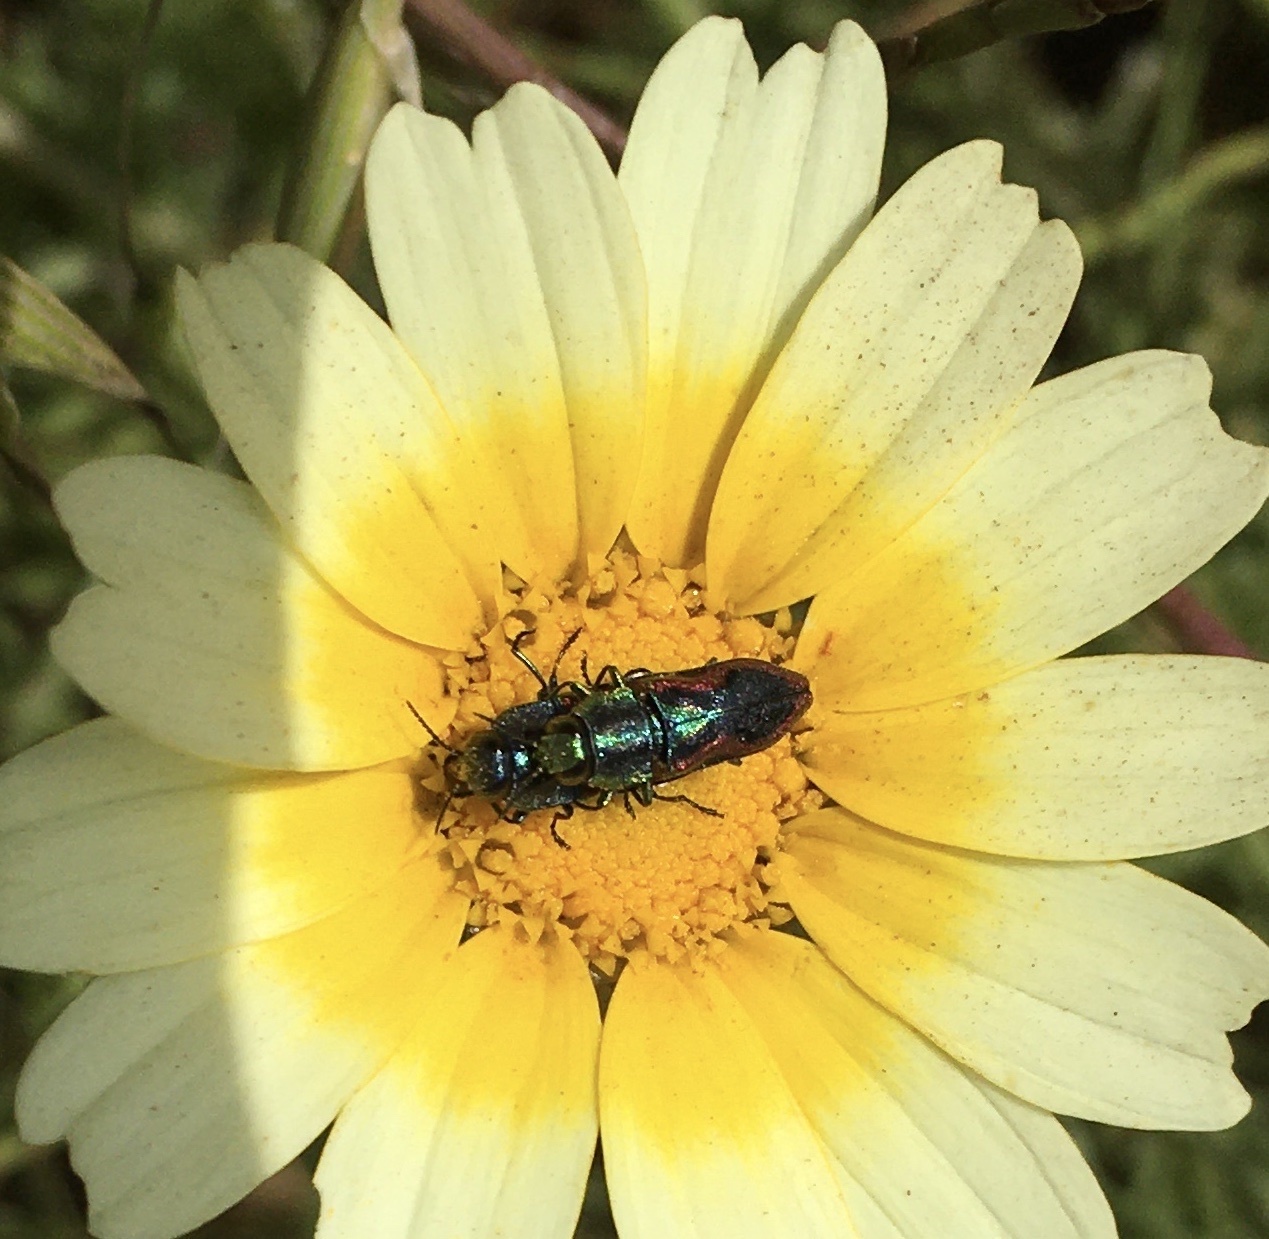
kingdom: Animalia
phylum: Arthropoda
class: Insecta
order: Coleoptera
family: Buprestidae
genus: Anthaxia
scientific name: Anthaxia lucens
